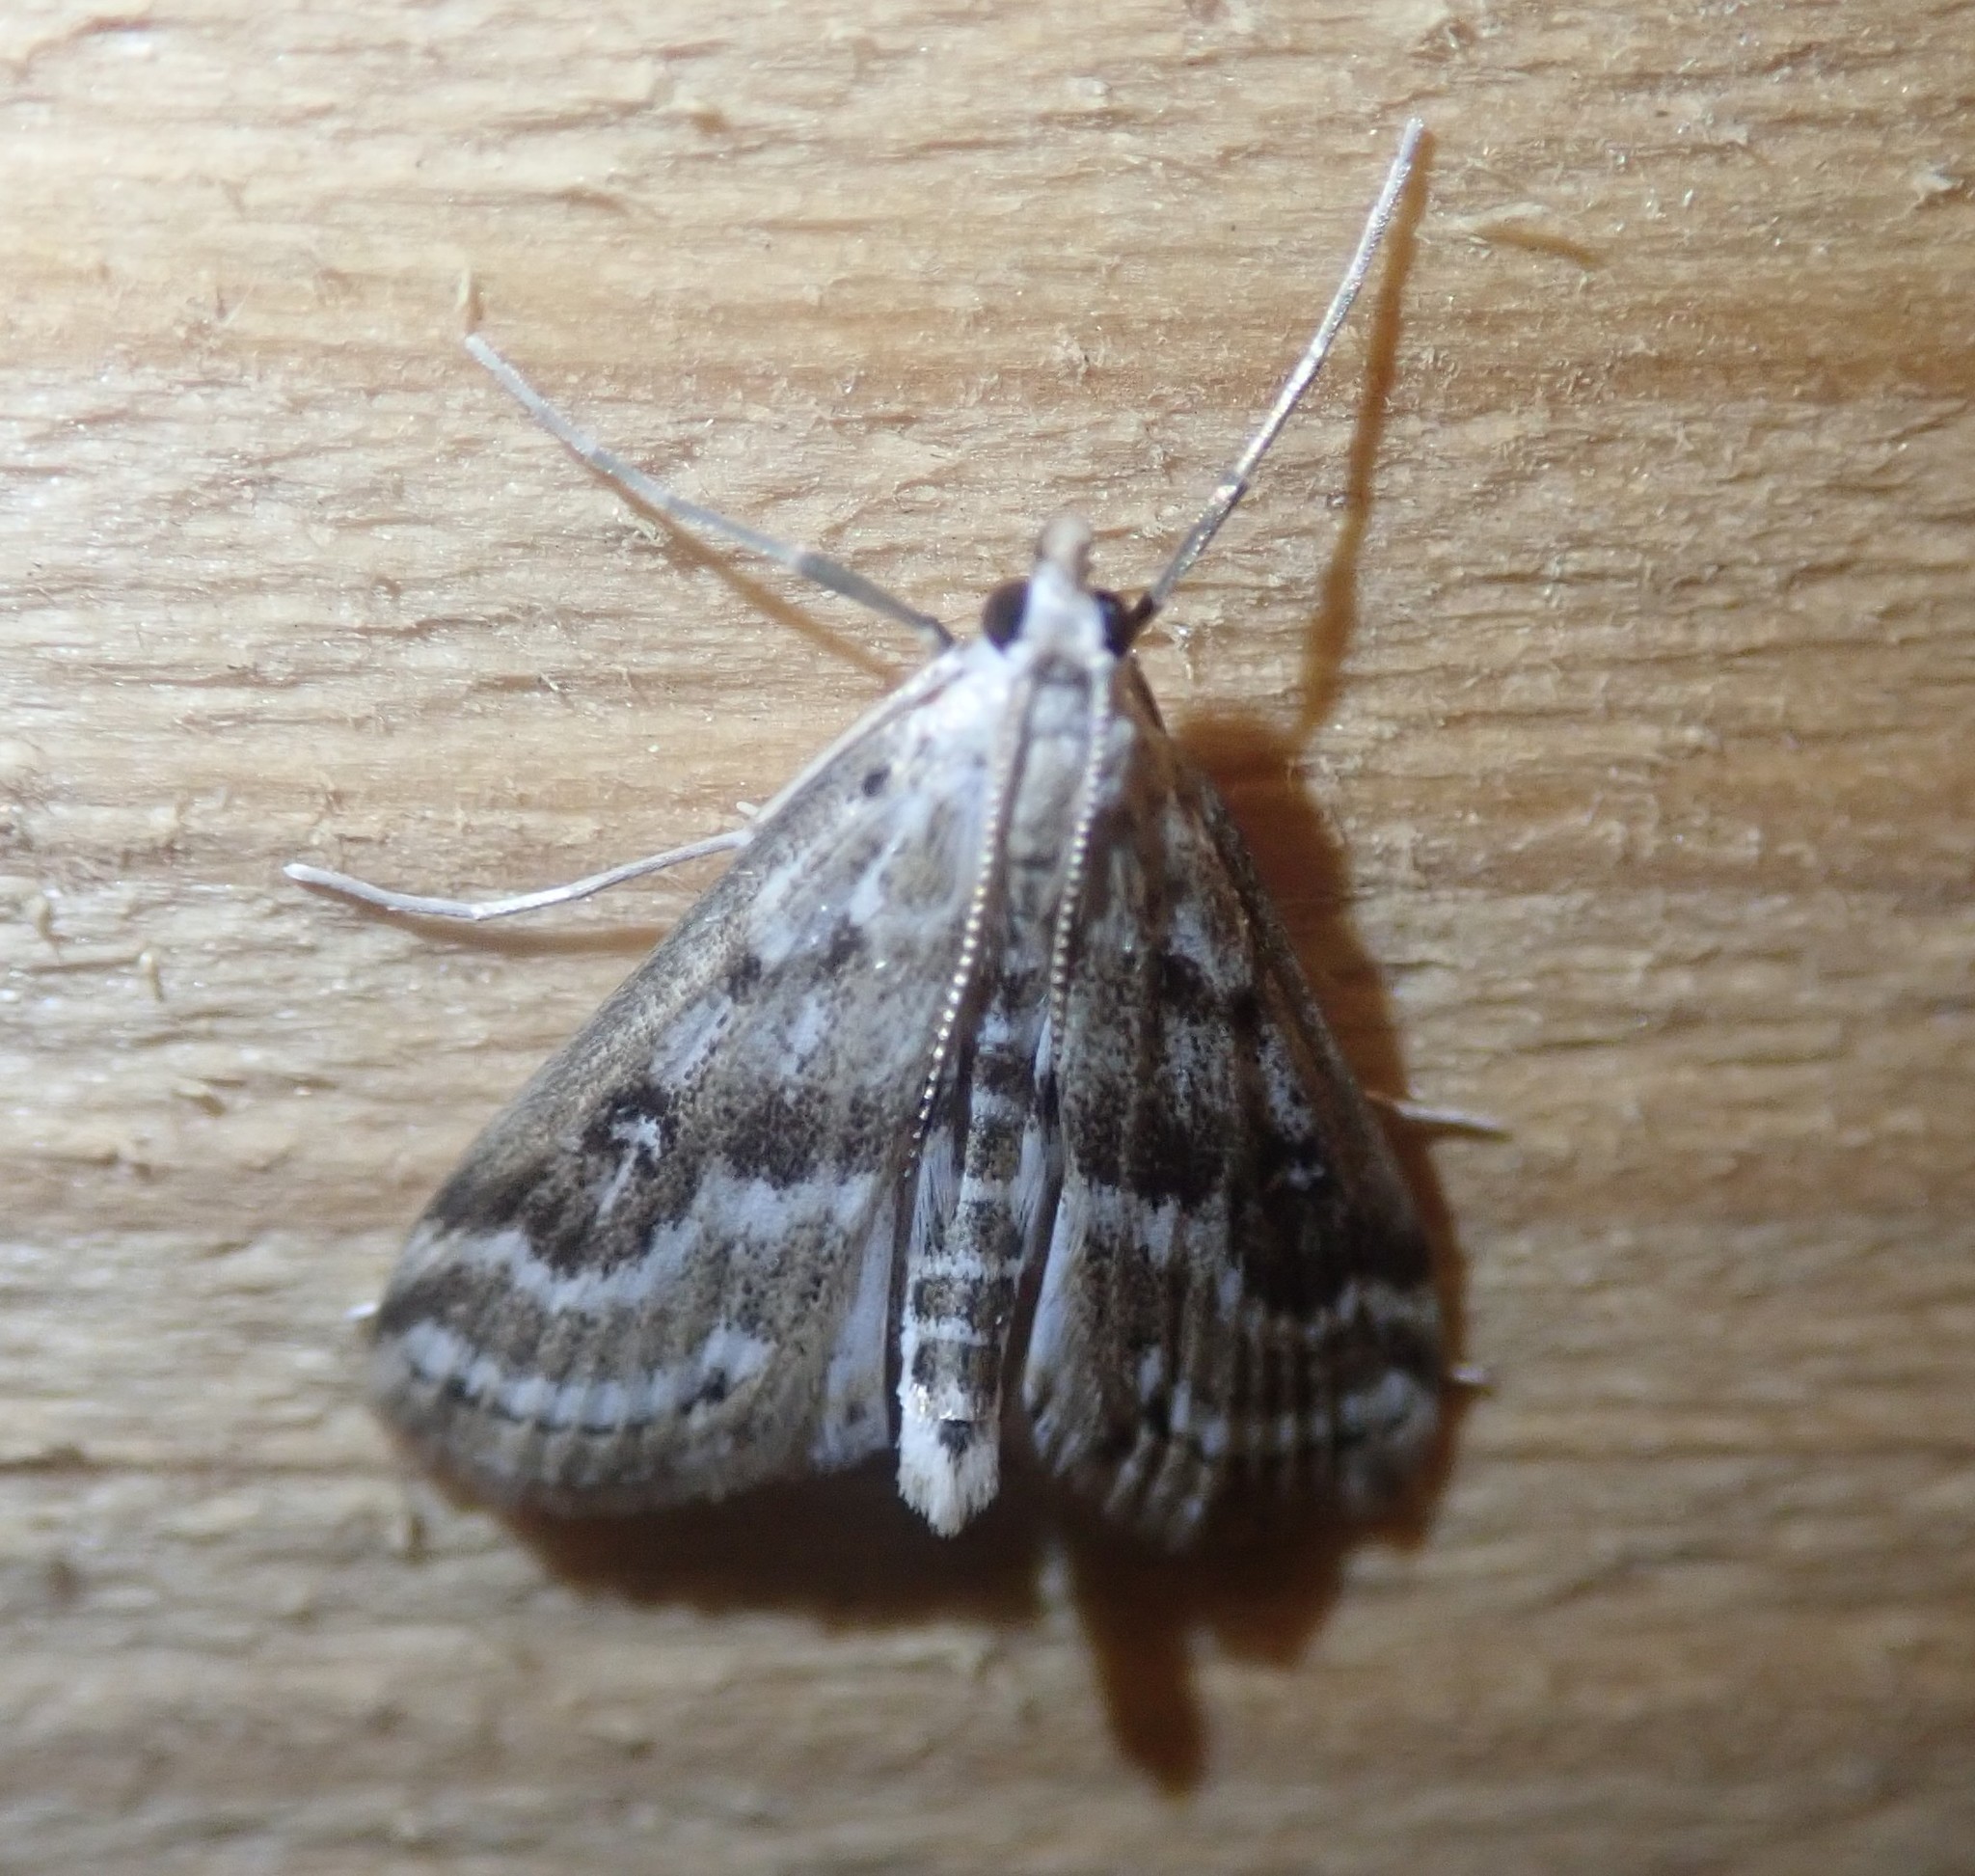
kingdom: Animalia
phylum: Arthropoda
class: Insecta
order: Lepidoptera
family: Crambidae
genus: Parapoynx
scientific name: Parapoynx stratiotata
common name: Ringed china-mark
